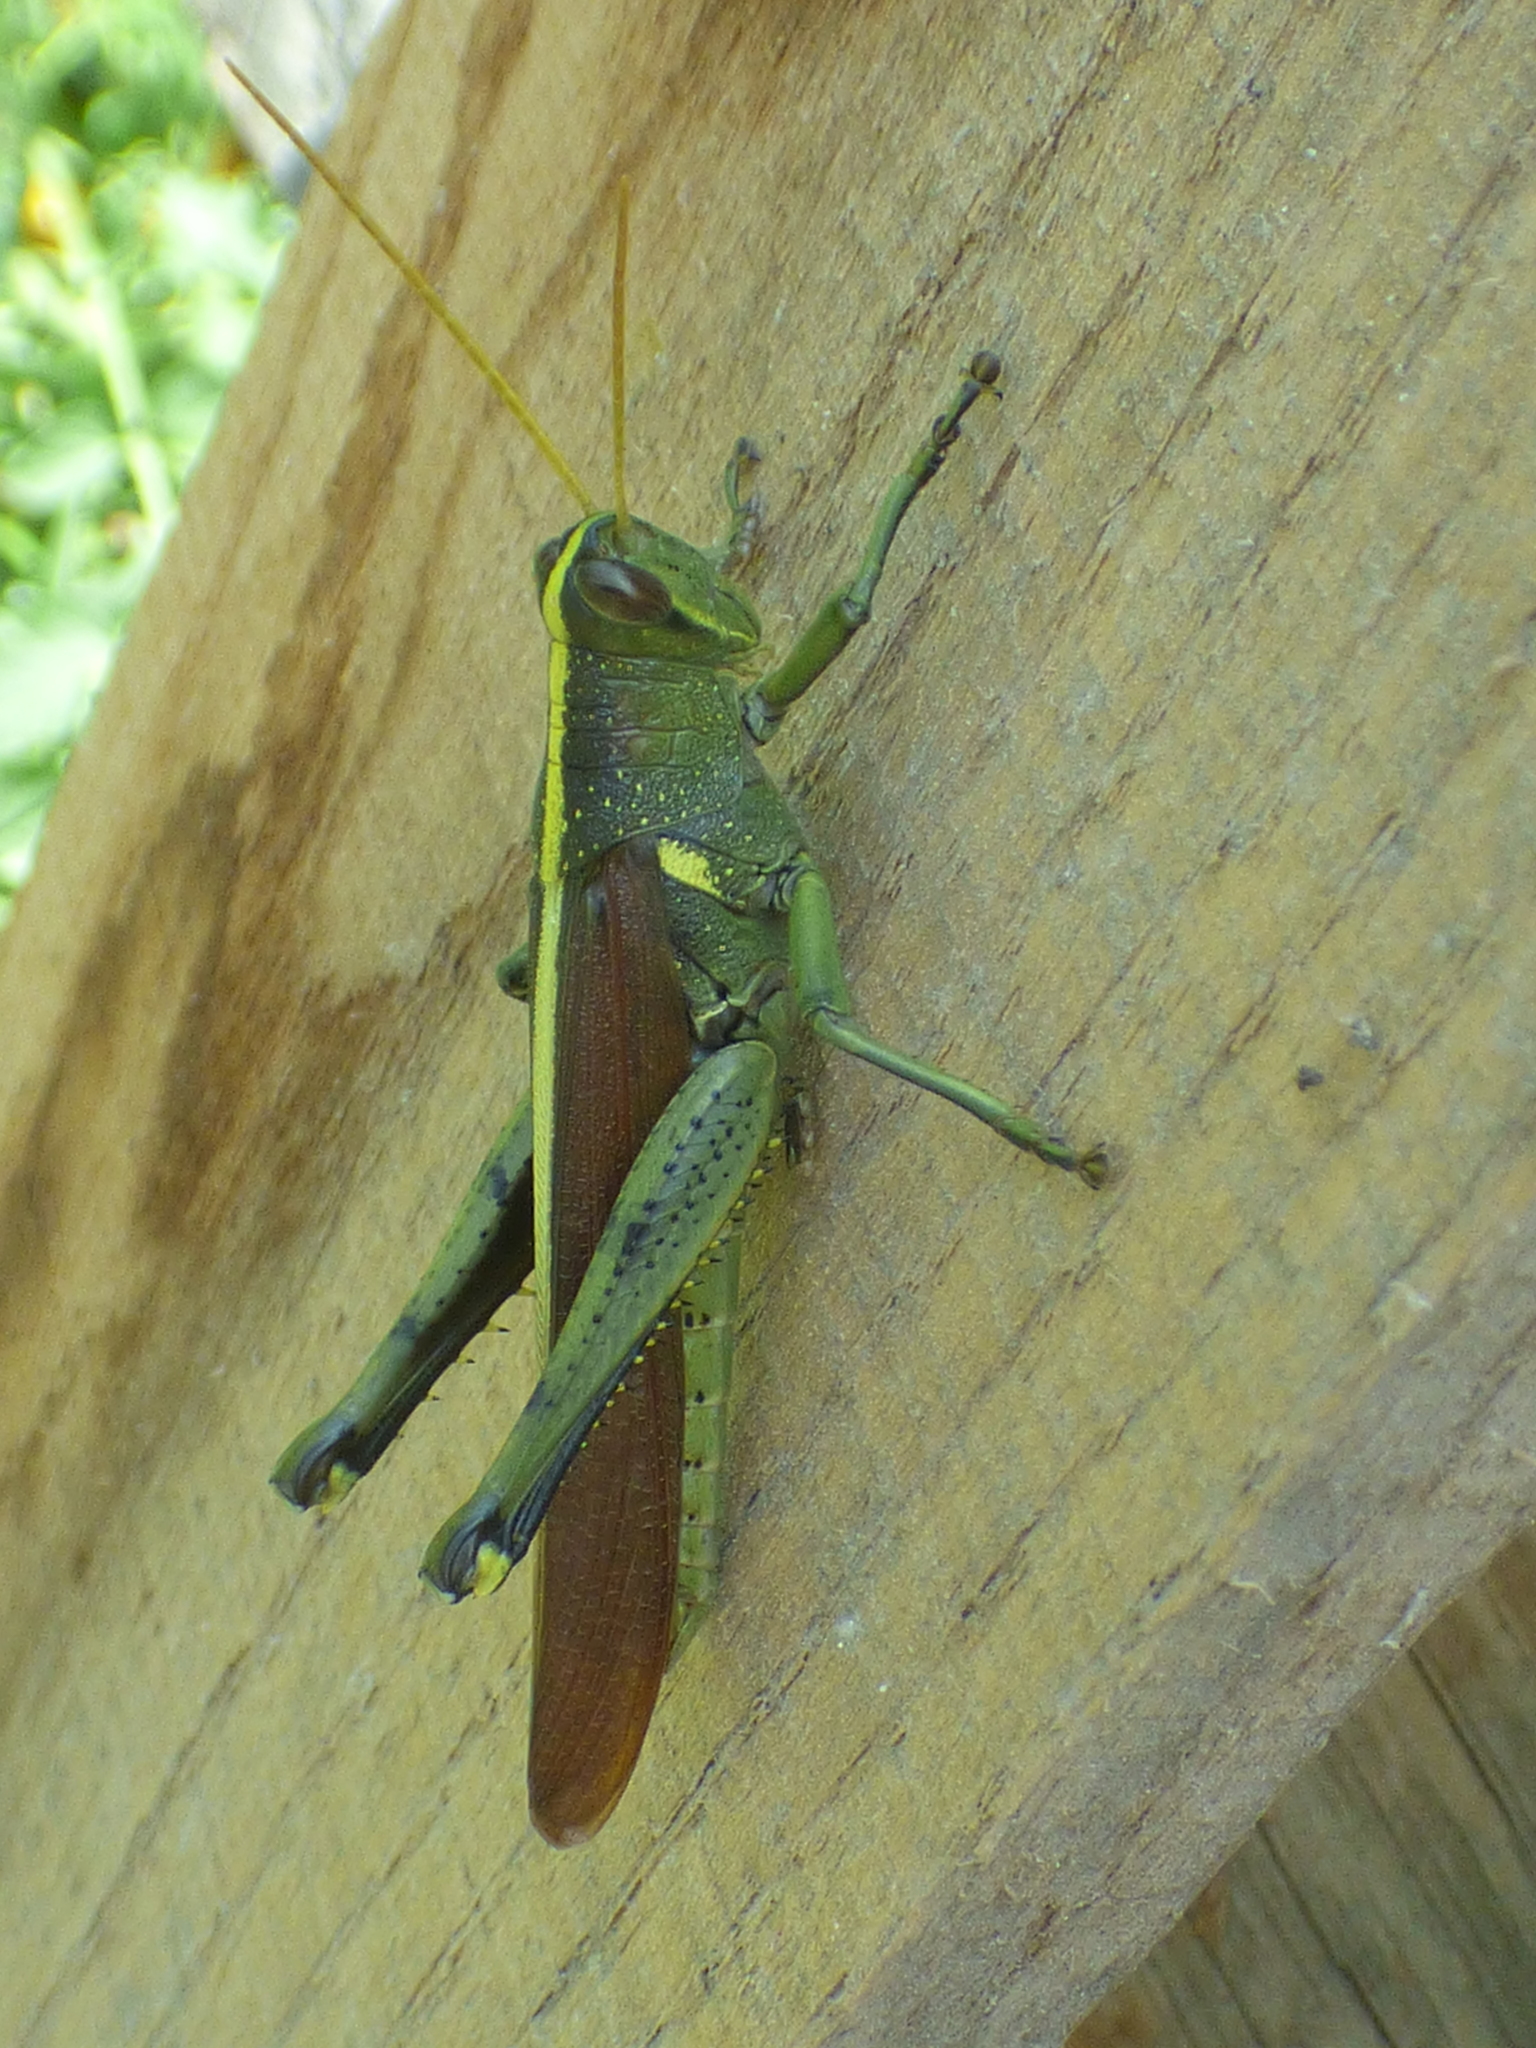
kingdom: Animalia
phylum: Arthropoda
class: Insecta
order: Orthoptera
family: Acrididae
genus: Schistocerca
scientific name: Schistocerca obscura
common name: Obscure bird grasshopper
